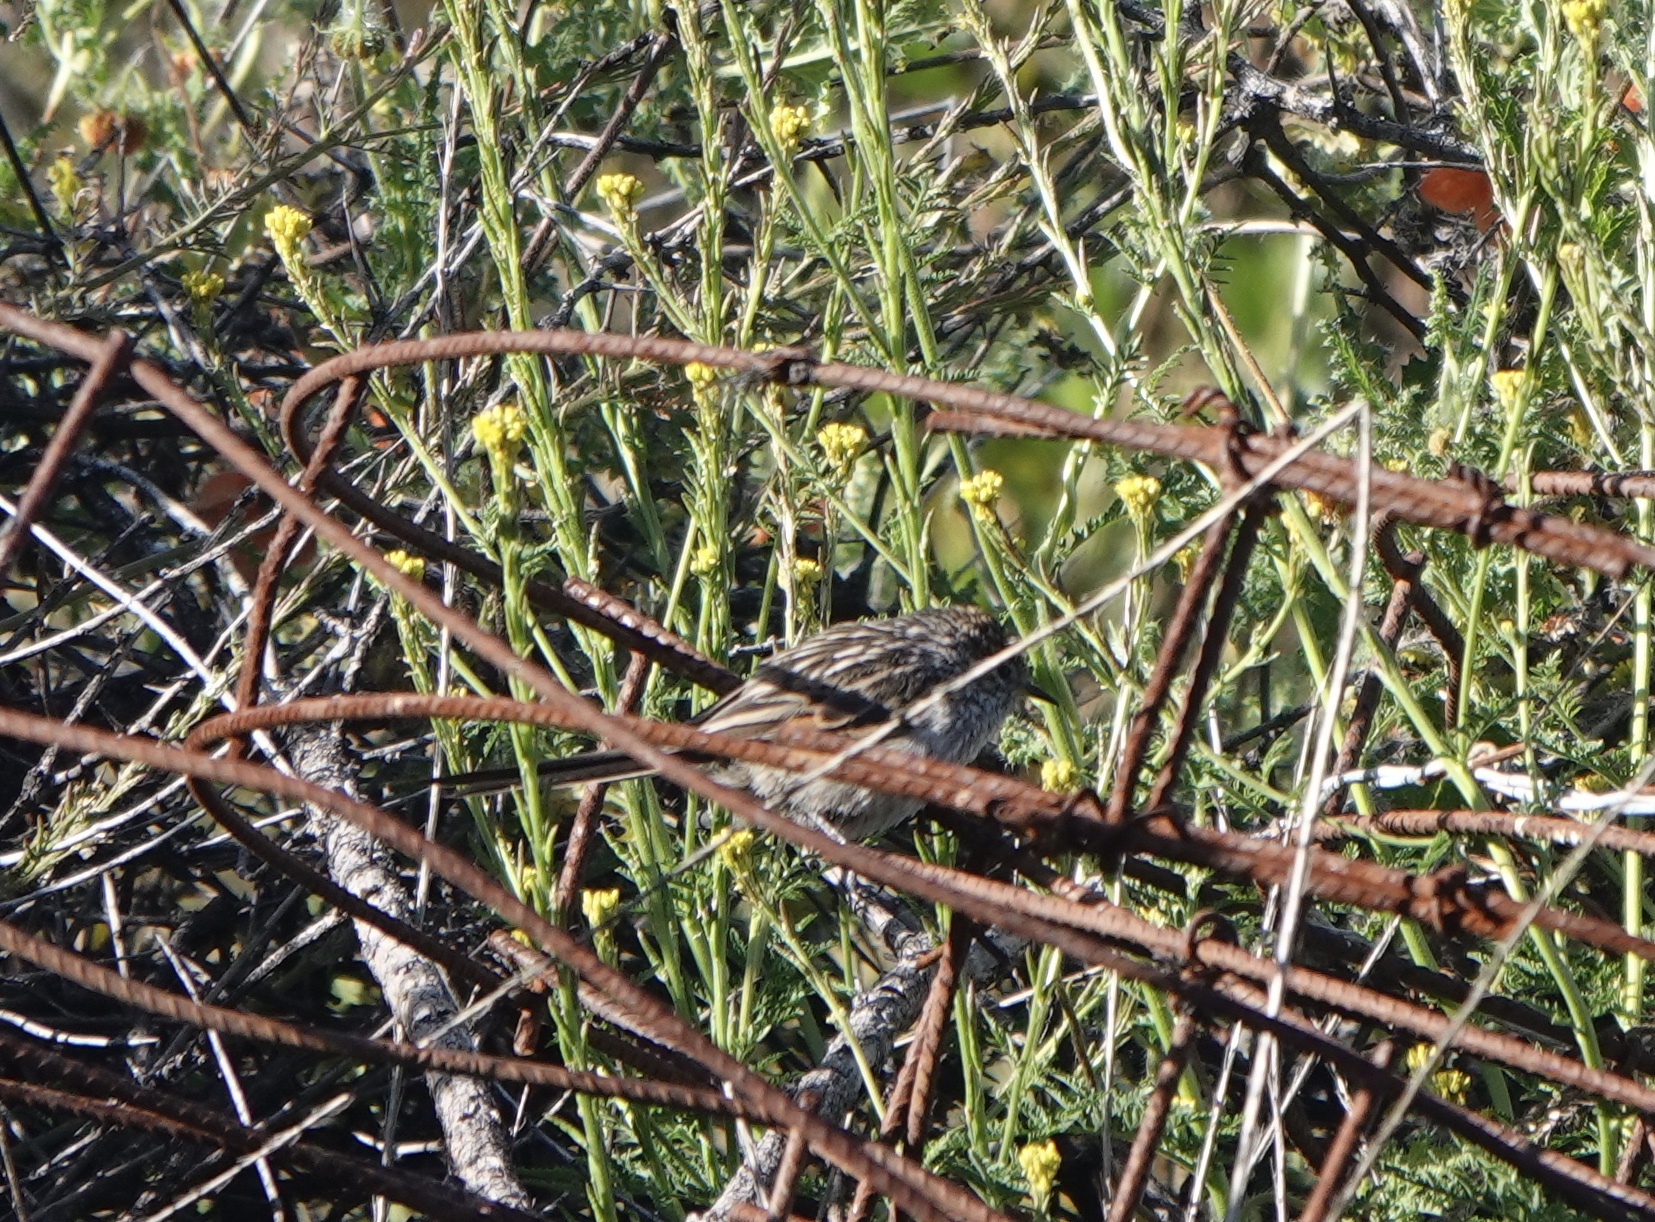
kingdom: Animalia
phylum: Chordata
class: Aves
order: Passeriformes
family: Furnariidae
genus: Leptasthenura
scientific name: Leptasthenura striata
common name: Streak-backed tit-spinetail
